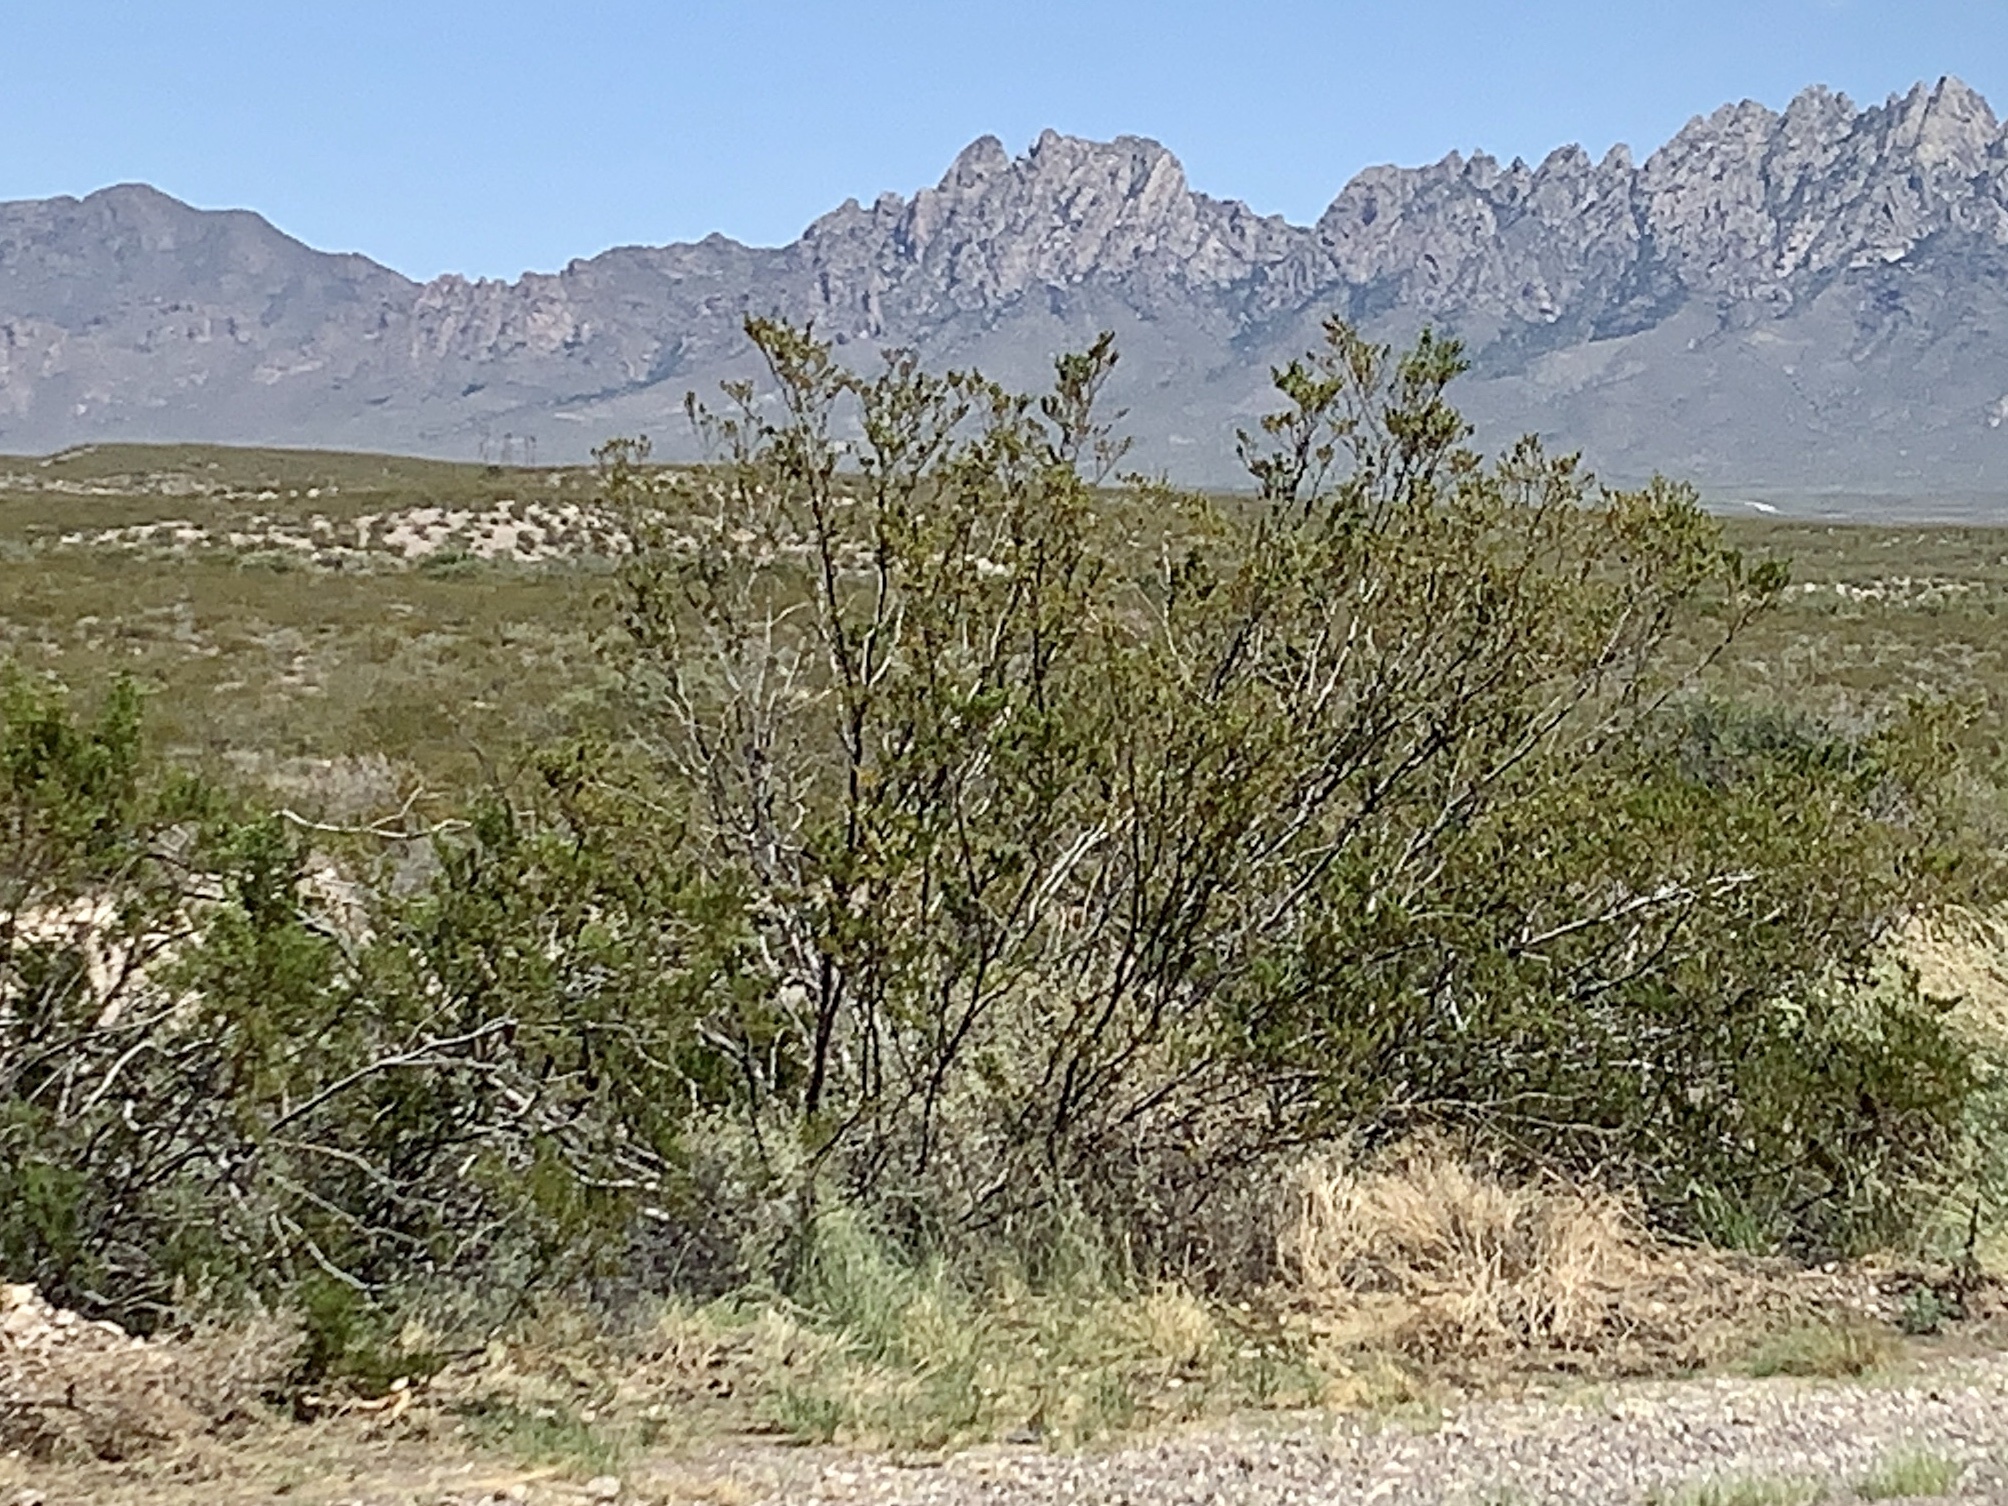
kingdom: Plantae
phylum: Tracheophyta
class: Magnoliopsida
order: Zygophyllales
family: Zygophyllaceae
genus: Larrea
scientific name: Larrea tridentata
